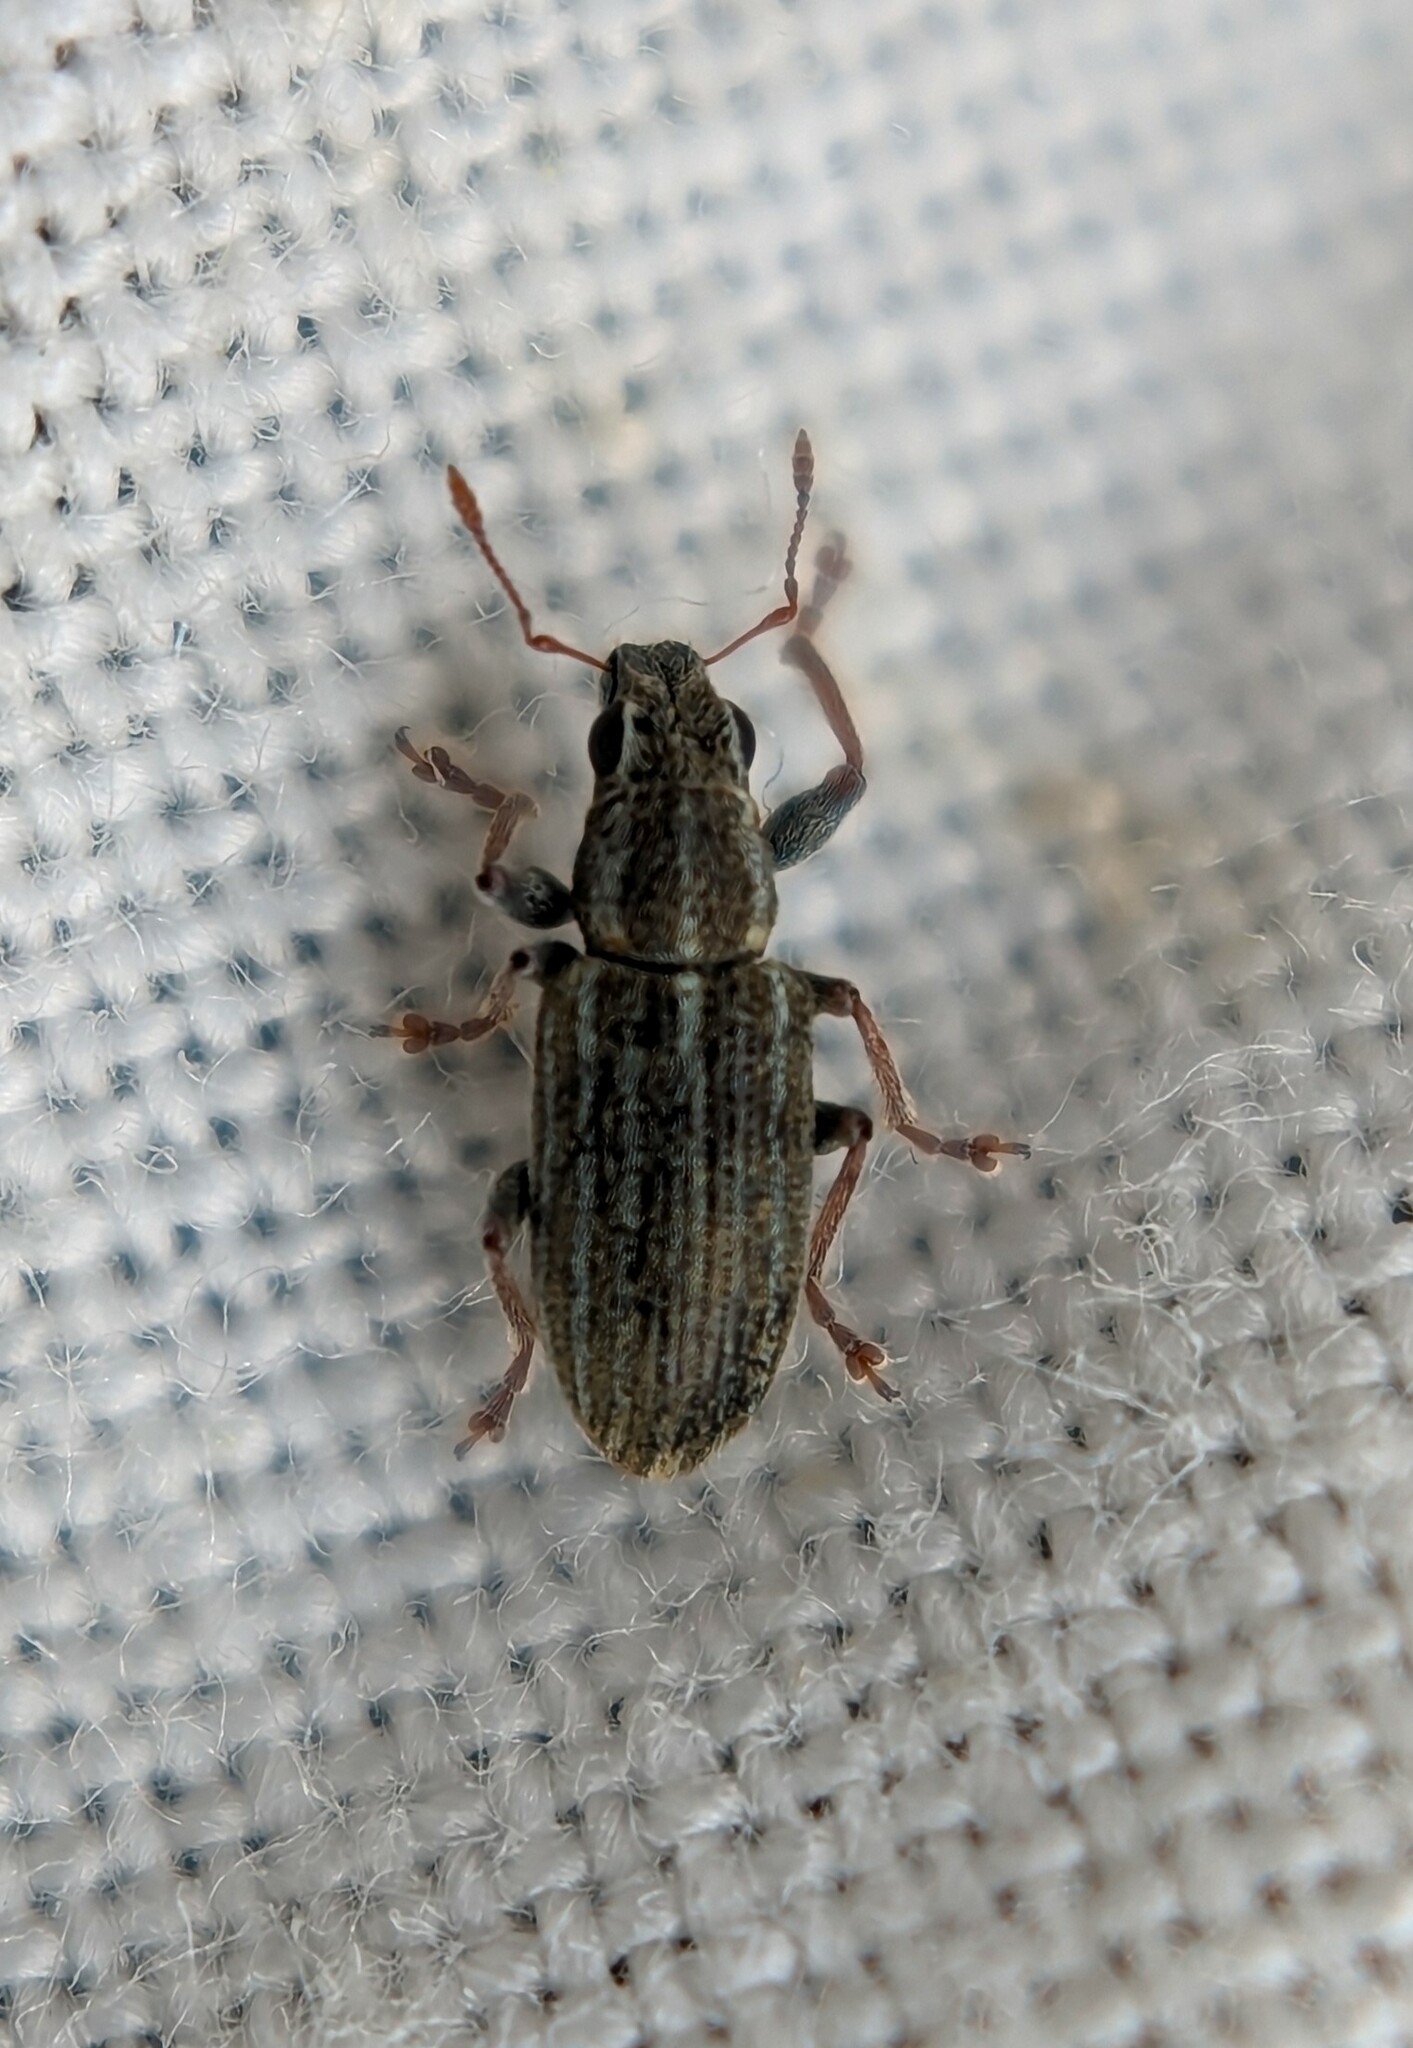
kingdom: Animalia
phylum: Arthropoda
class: Insecta
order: Coleoptera
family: Curculionidae
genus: Sitona
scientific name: Sitona lineatus
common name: Weevil
